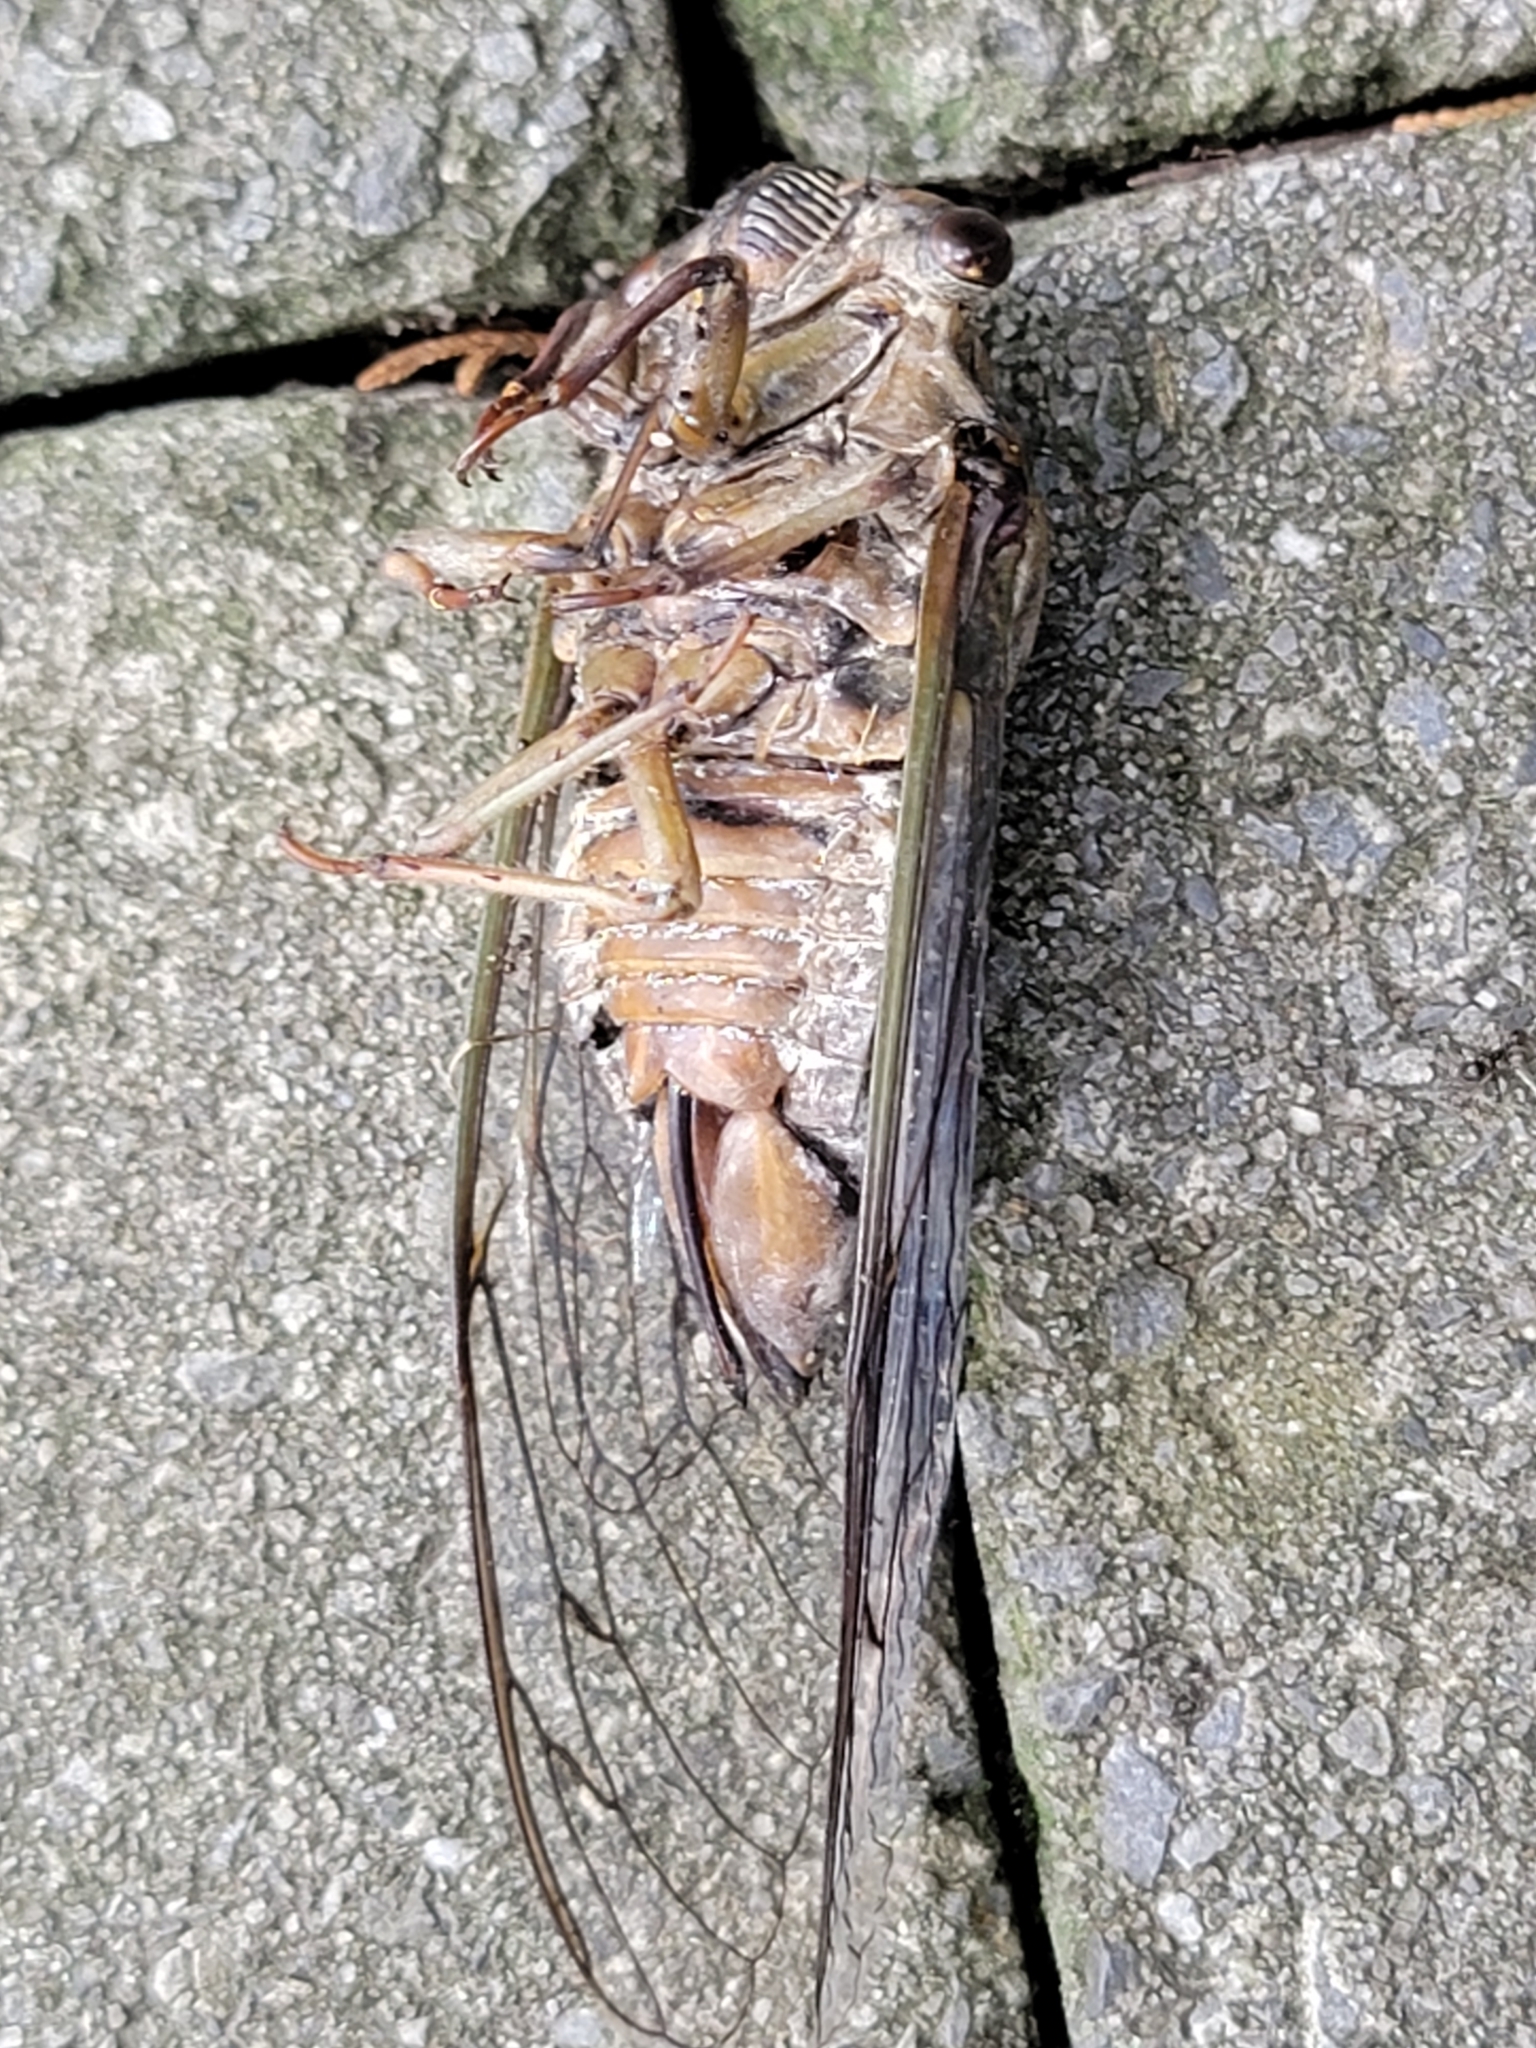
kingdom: Animalia
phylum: Arthropoda
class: Insecta
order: Hemiptera
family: Cicadidae
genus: Diceroprocta
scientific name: Diceroprocta grossa
